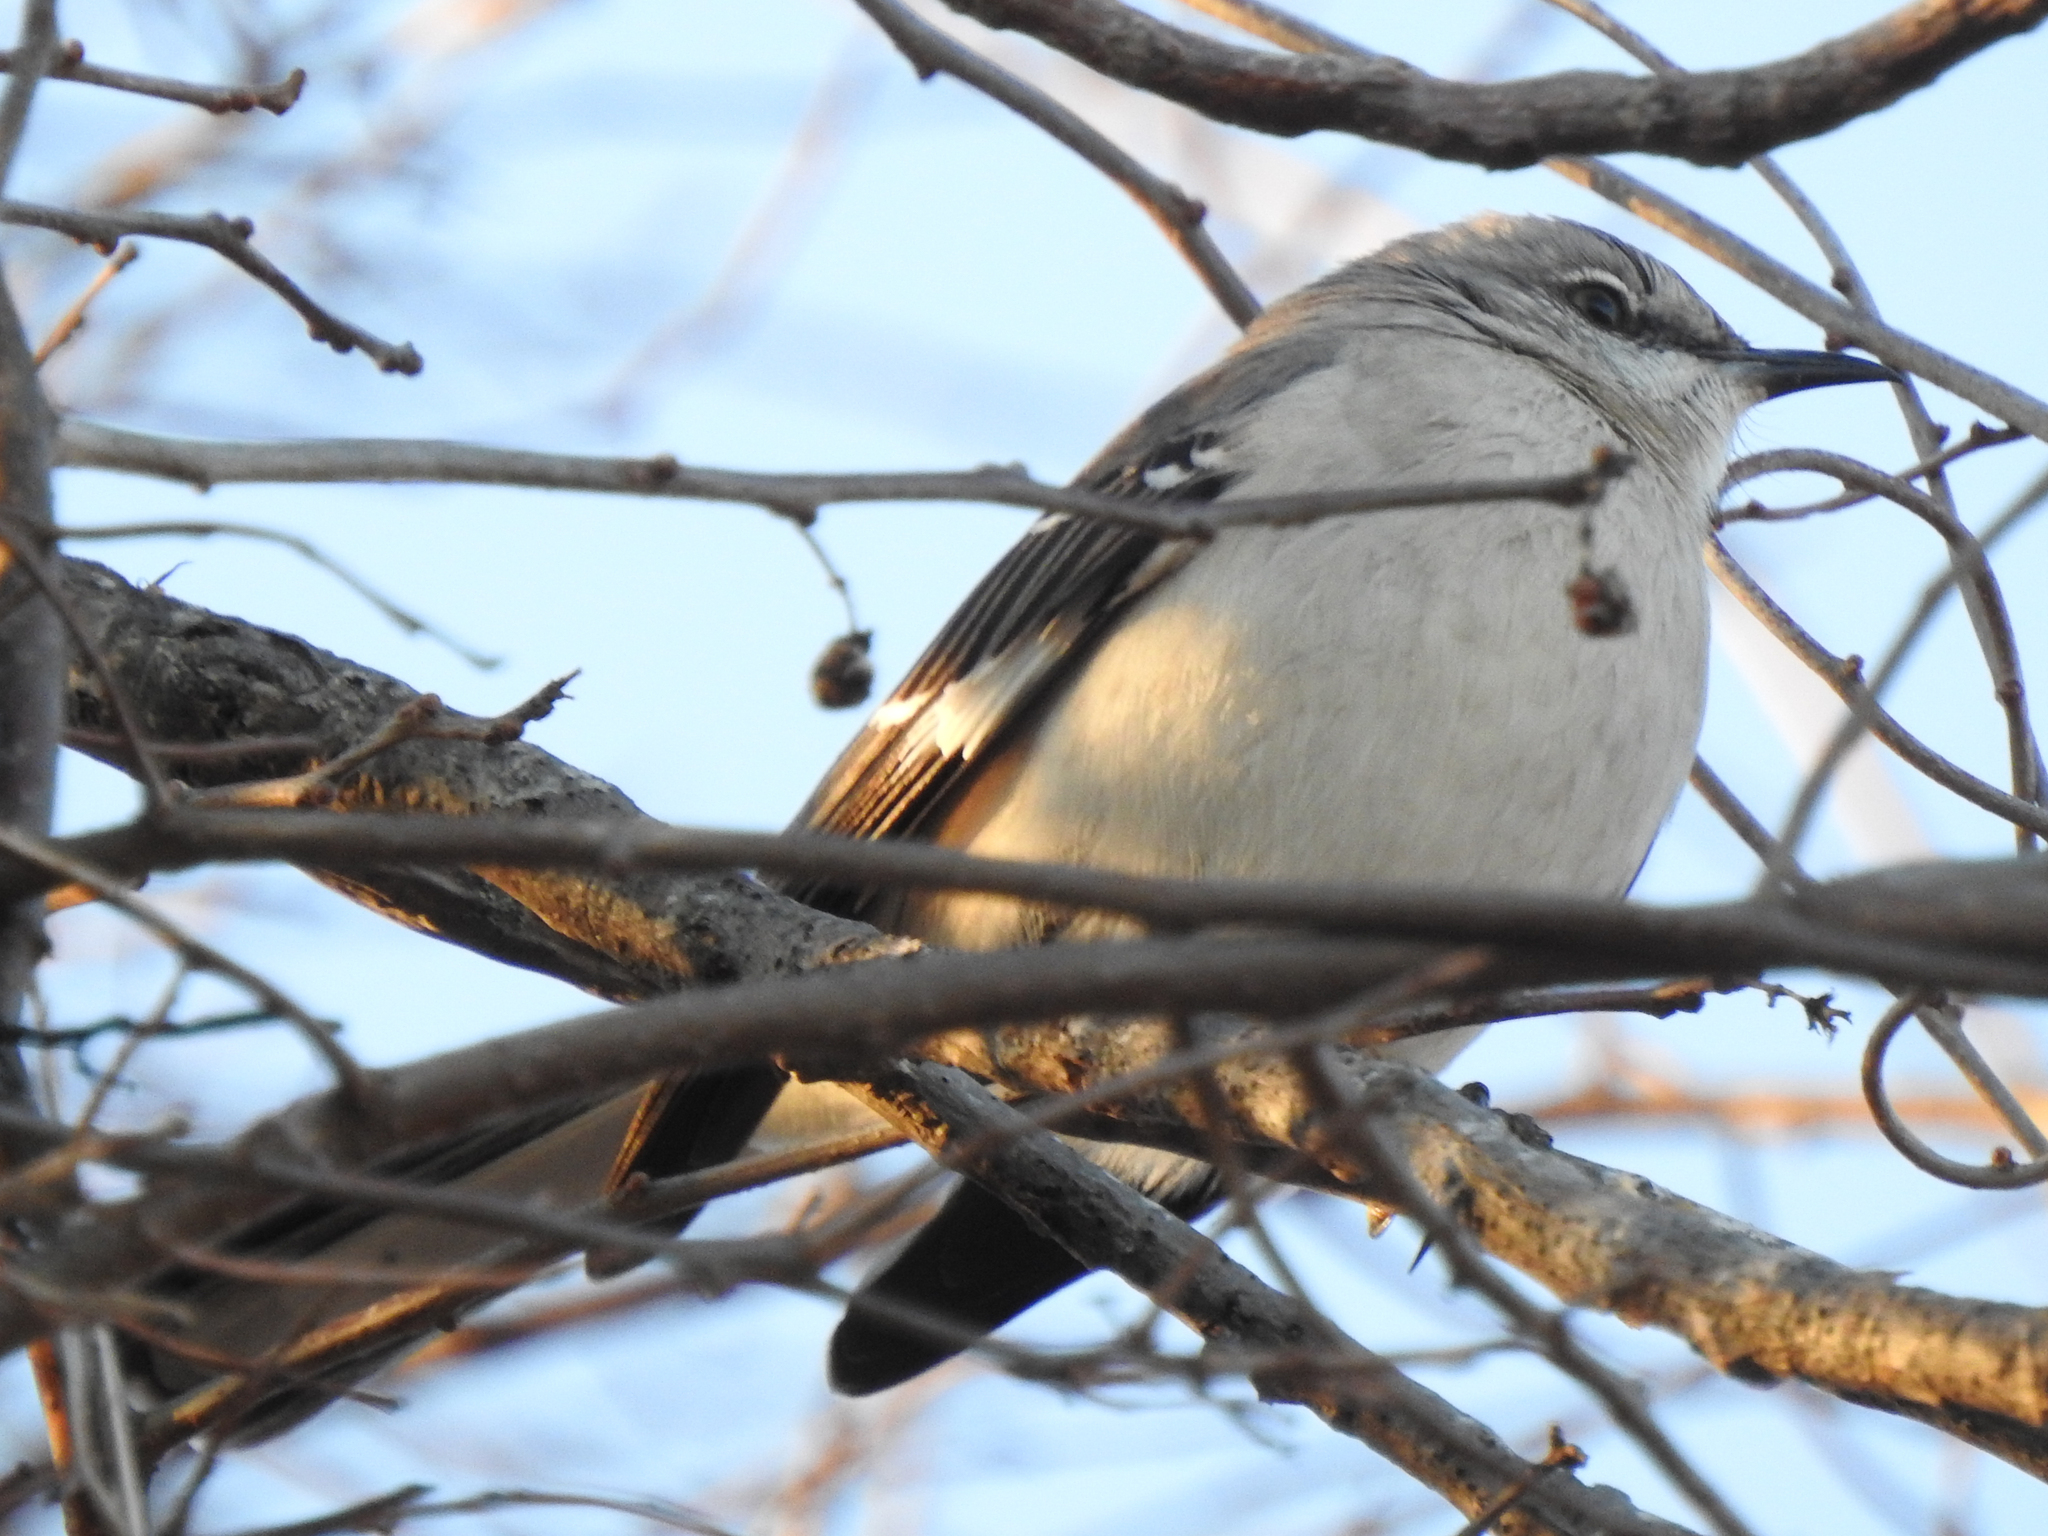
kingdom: Animalia
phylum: Chordata
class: Aves
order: Passeriformes
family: Mimidae
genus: Mimus
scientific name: Mimus polyglottos
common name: Northern mockingbird
